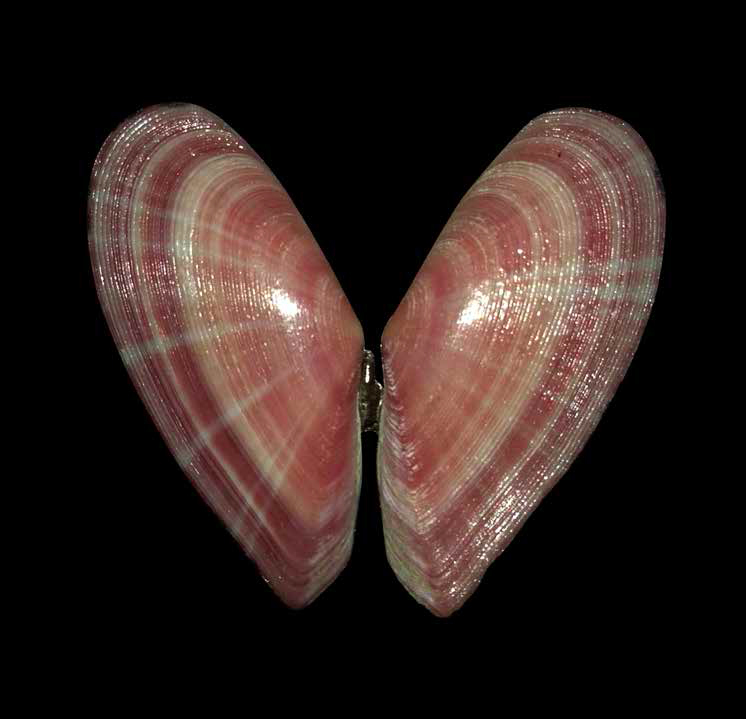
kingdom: Animalia
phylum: Mollusca
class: Bivalvia
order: Cardiida
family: Tellinidae
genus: Moerella
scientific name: Moerella pulchella
